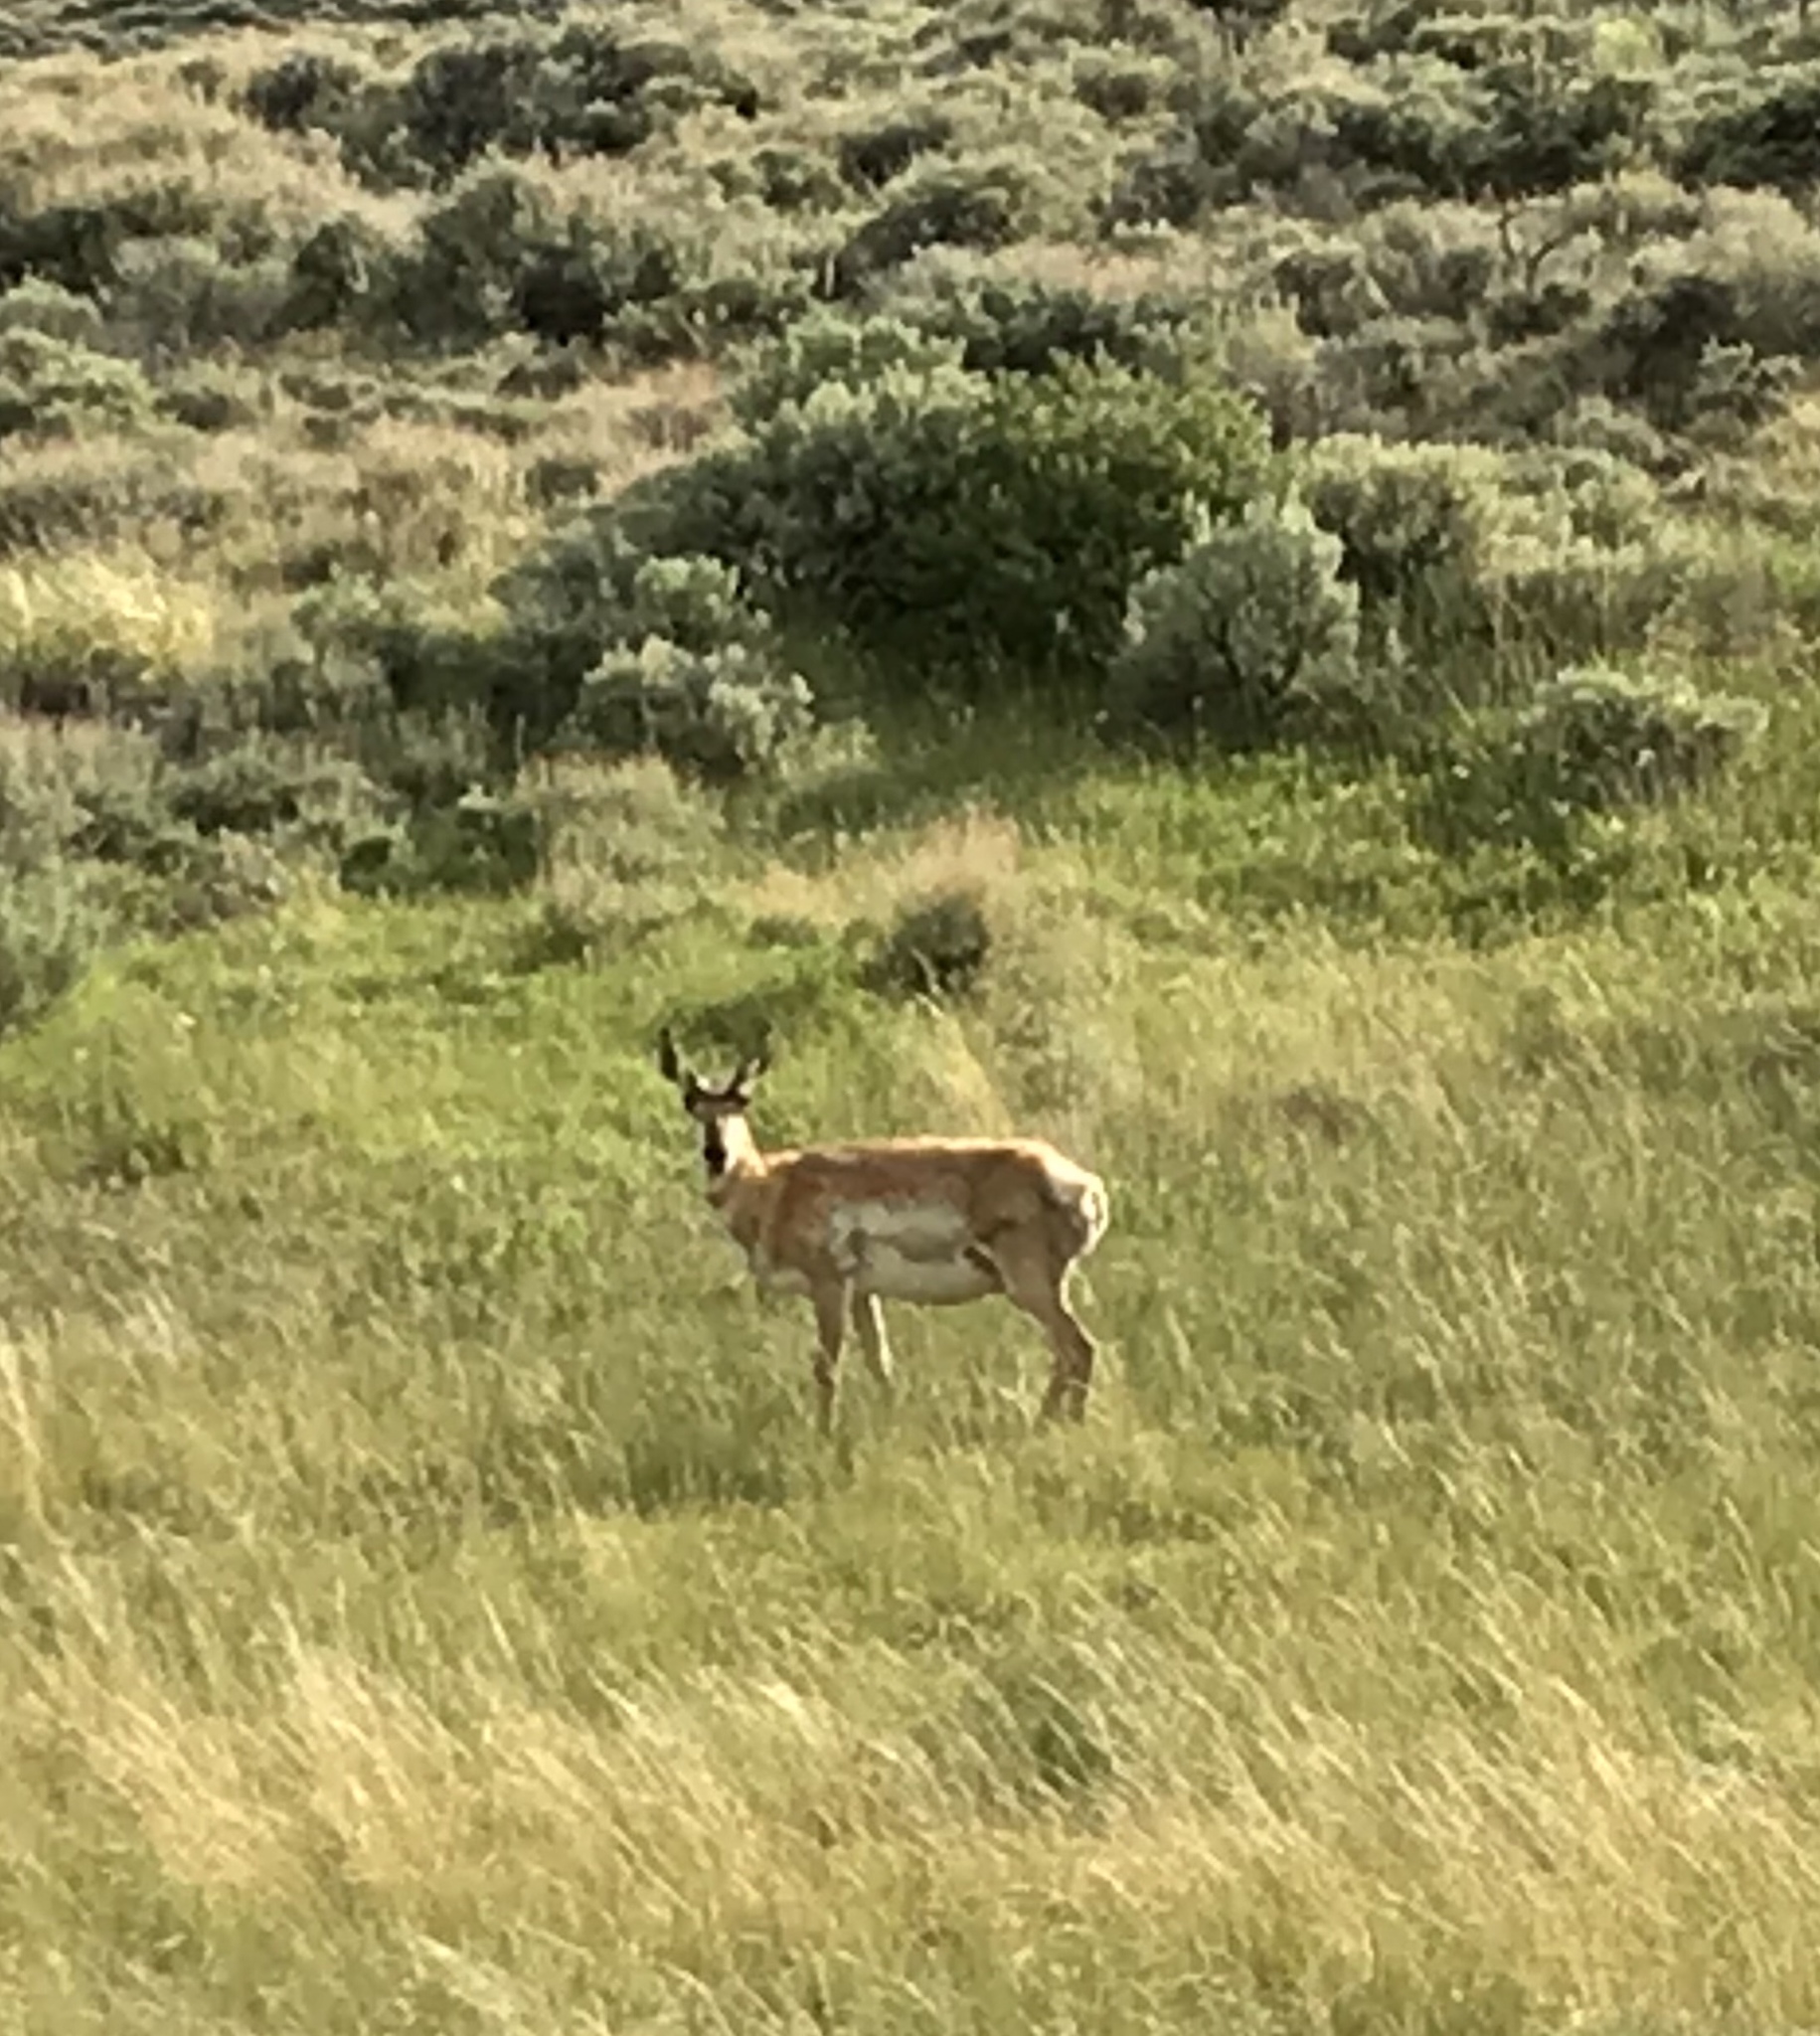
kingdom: Animalia
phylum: Chordata
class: Mammalia
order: Artiodactyla
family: Antilocapridae
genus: Antilocapra
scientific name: Antilocapra americana
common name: Pronghorn
